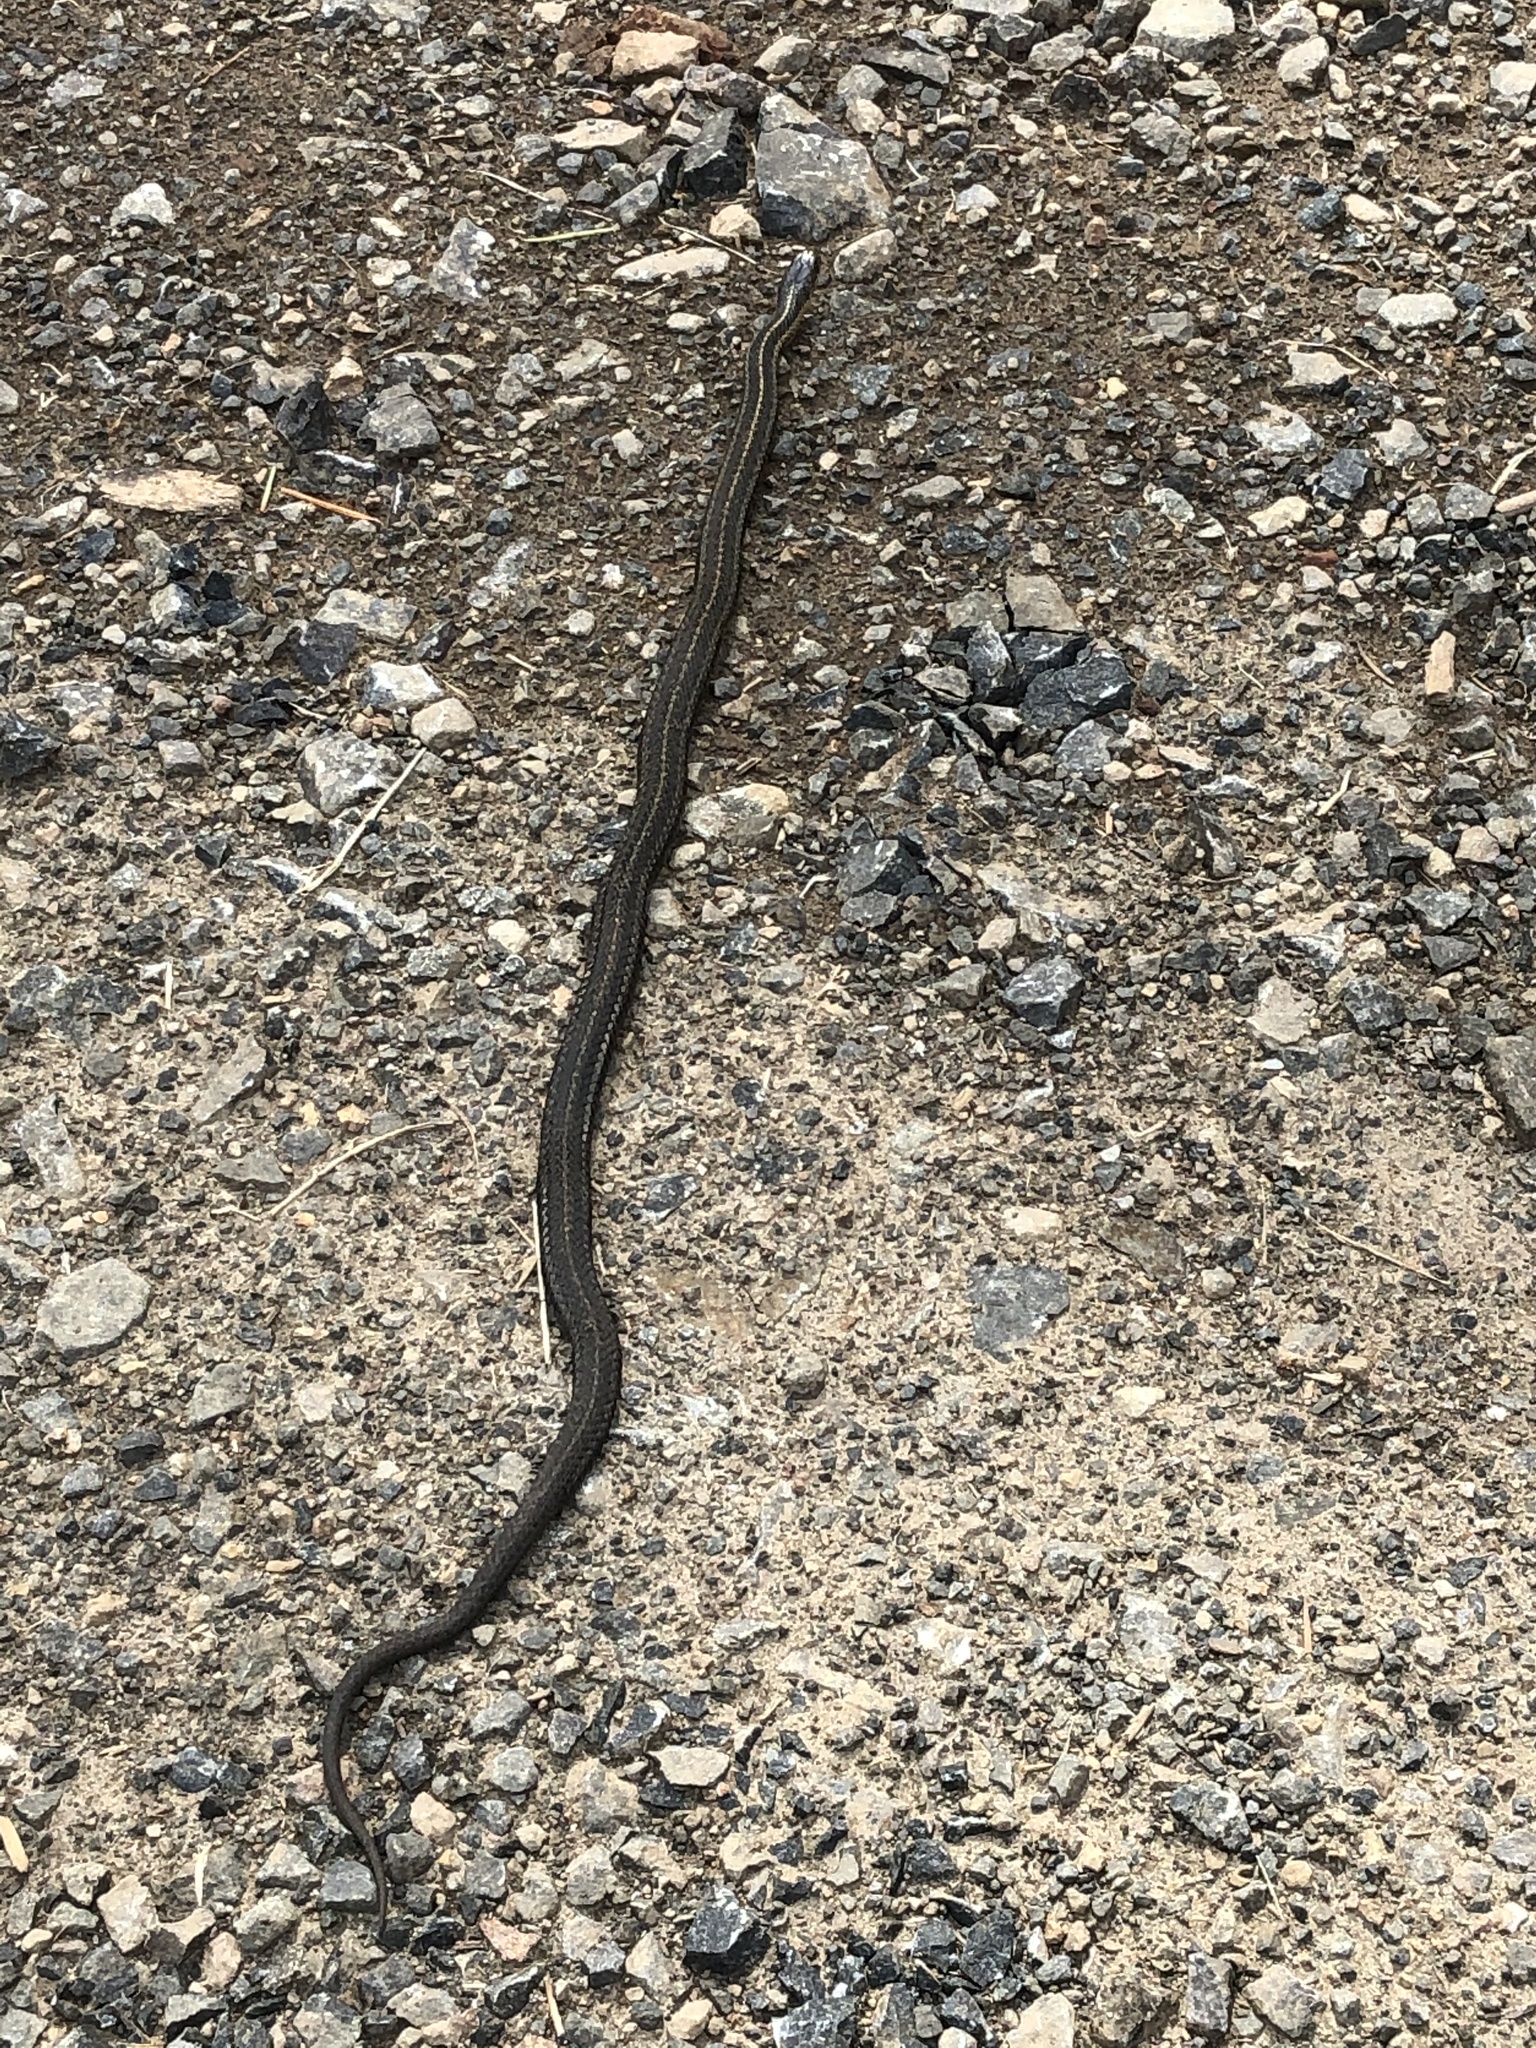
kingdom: Animalia
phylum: Chordata
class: Squamata
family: Colubridae
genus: Thamnophis
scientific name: Thamnophis ordinoides
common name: Northwestern garter snake
